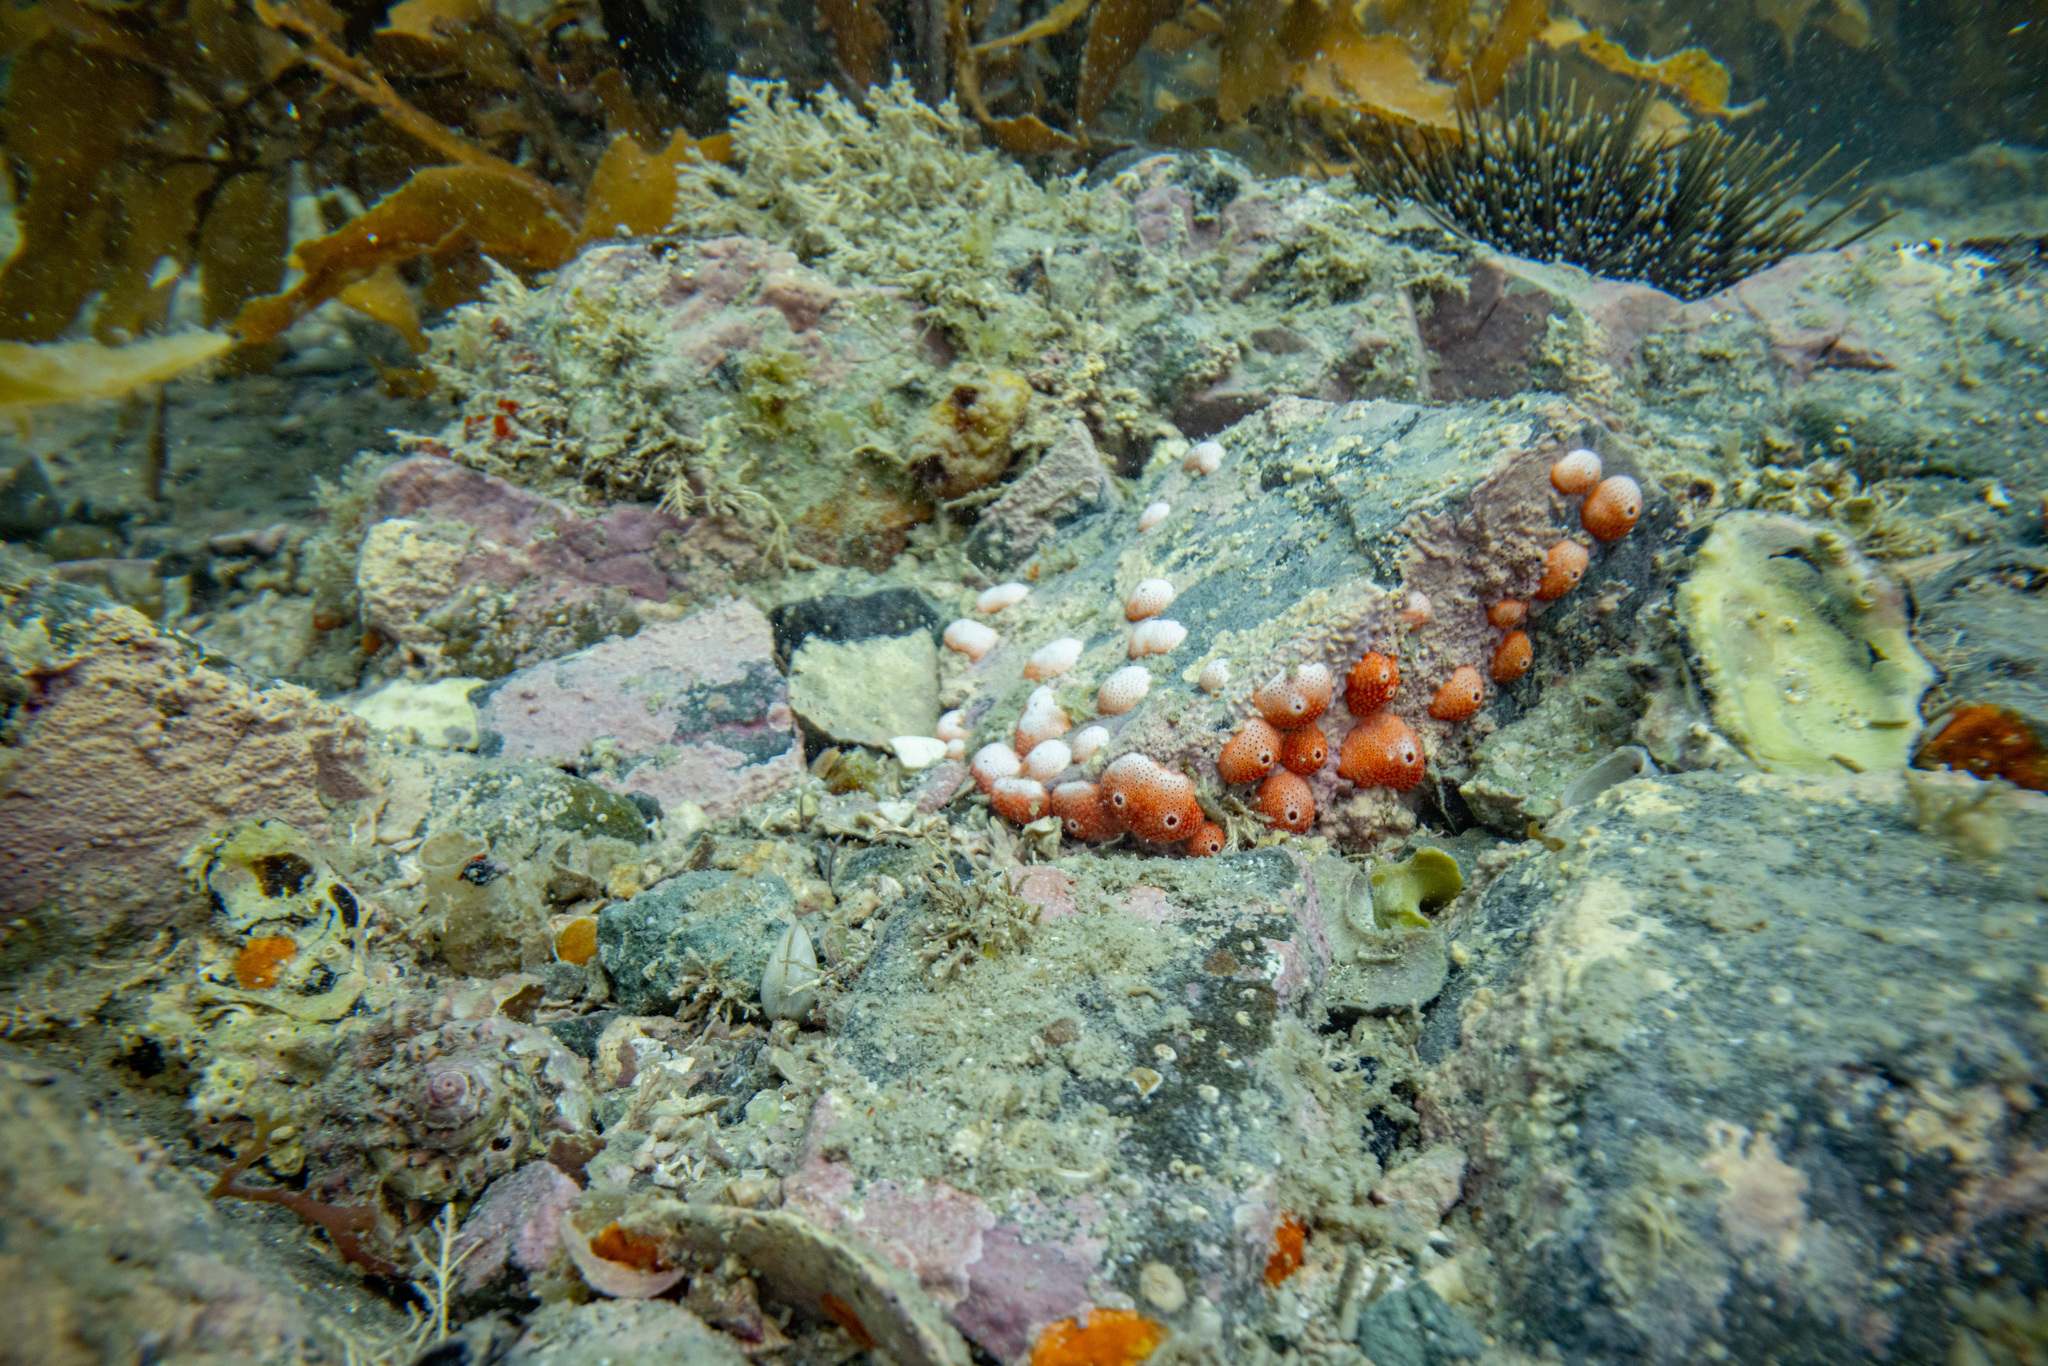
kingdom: Animalia
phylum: Mollusca
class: Gastropoda
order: Neogastropoda
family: Fasciolariidae
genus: Taron
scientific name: Taron dubius
